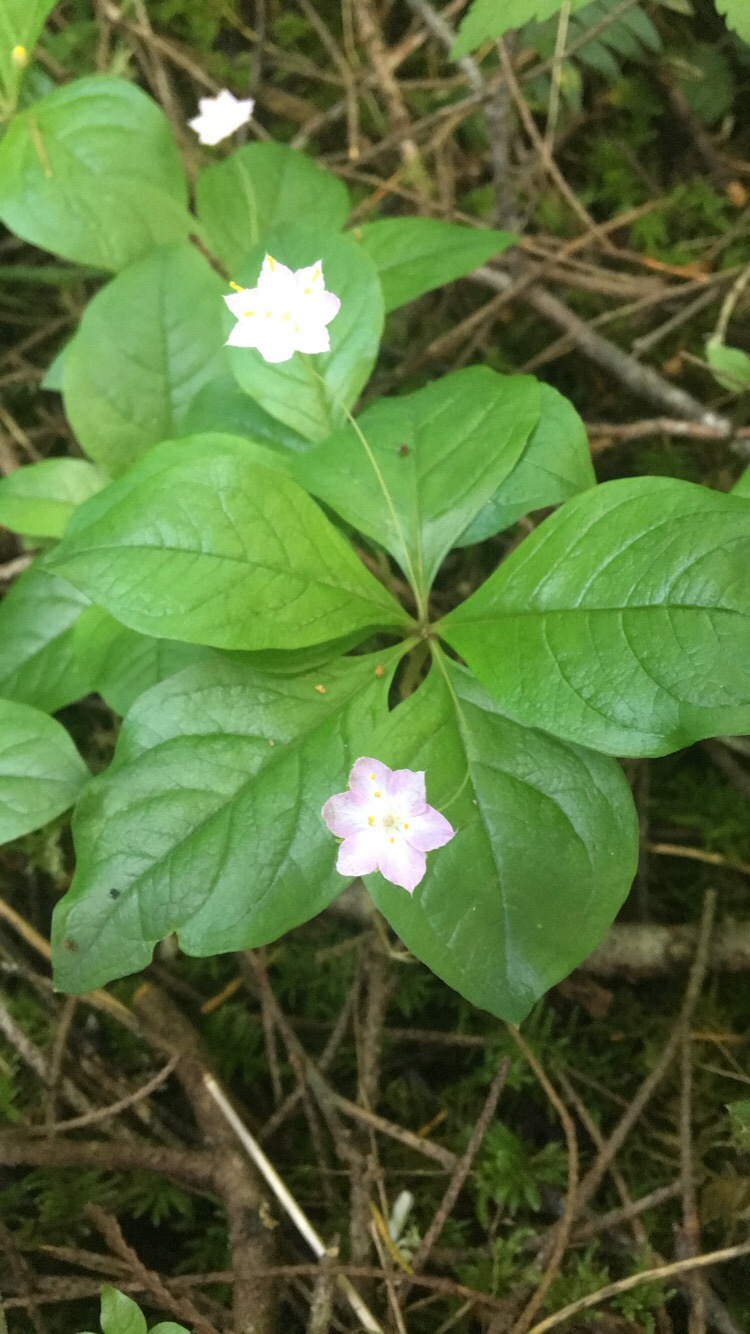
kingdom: Plantae
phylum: Tracheophyta
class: Magnoliopsida
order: Ericales
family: Primulaceae
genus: Lysimachia
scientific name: Lysimachia latifolia
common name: Pacific starflower
